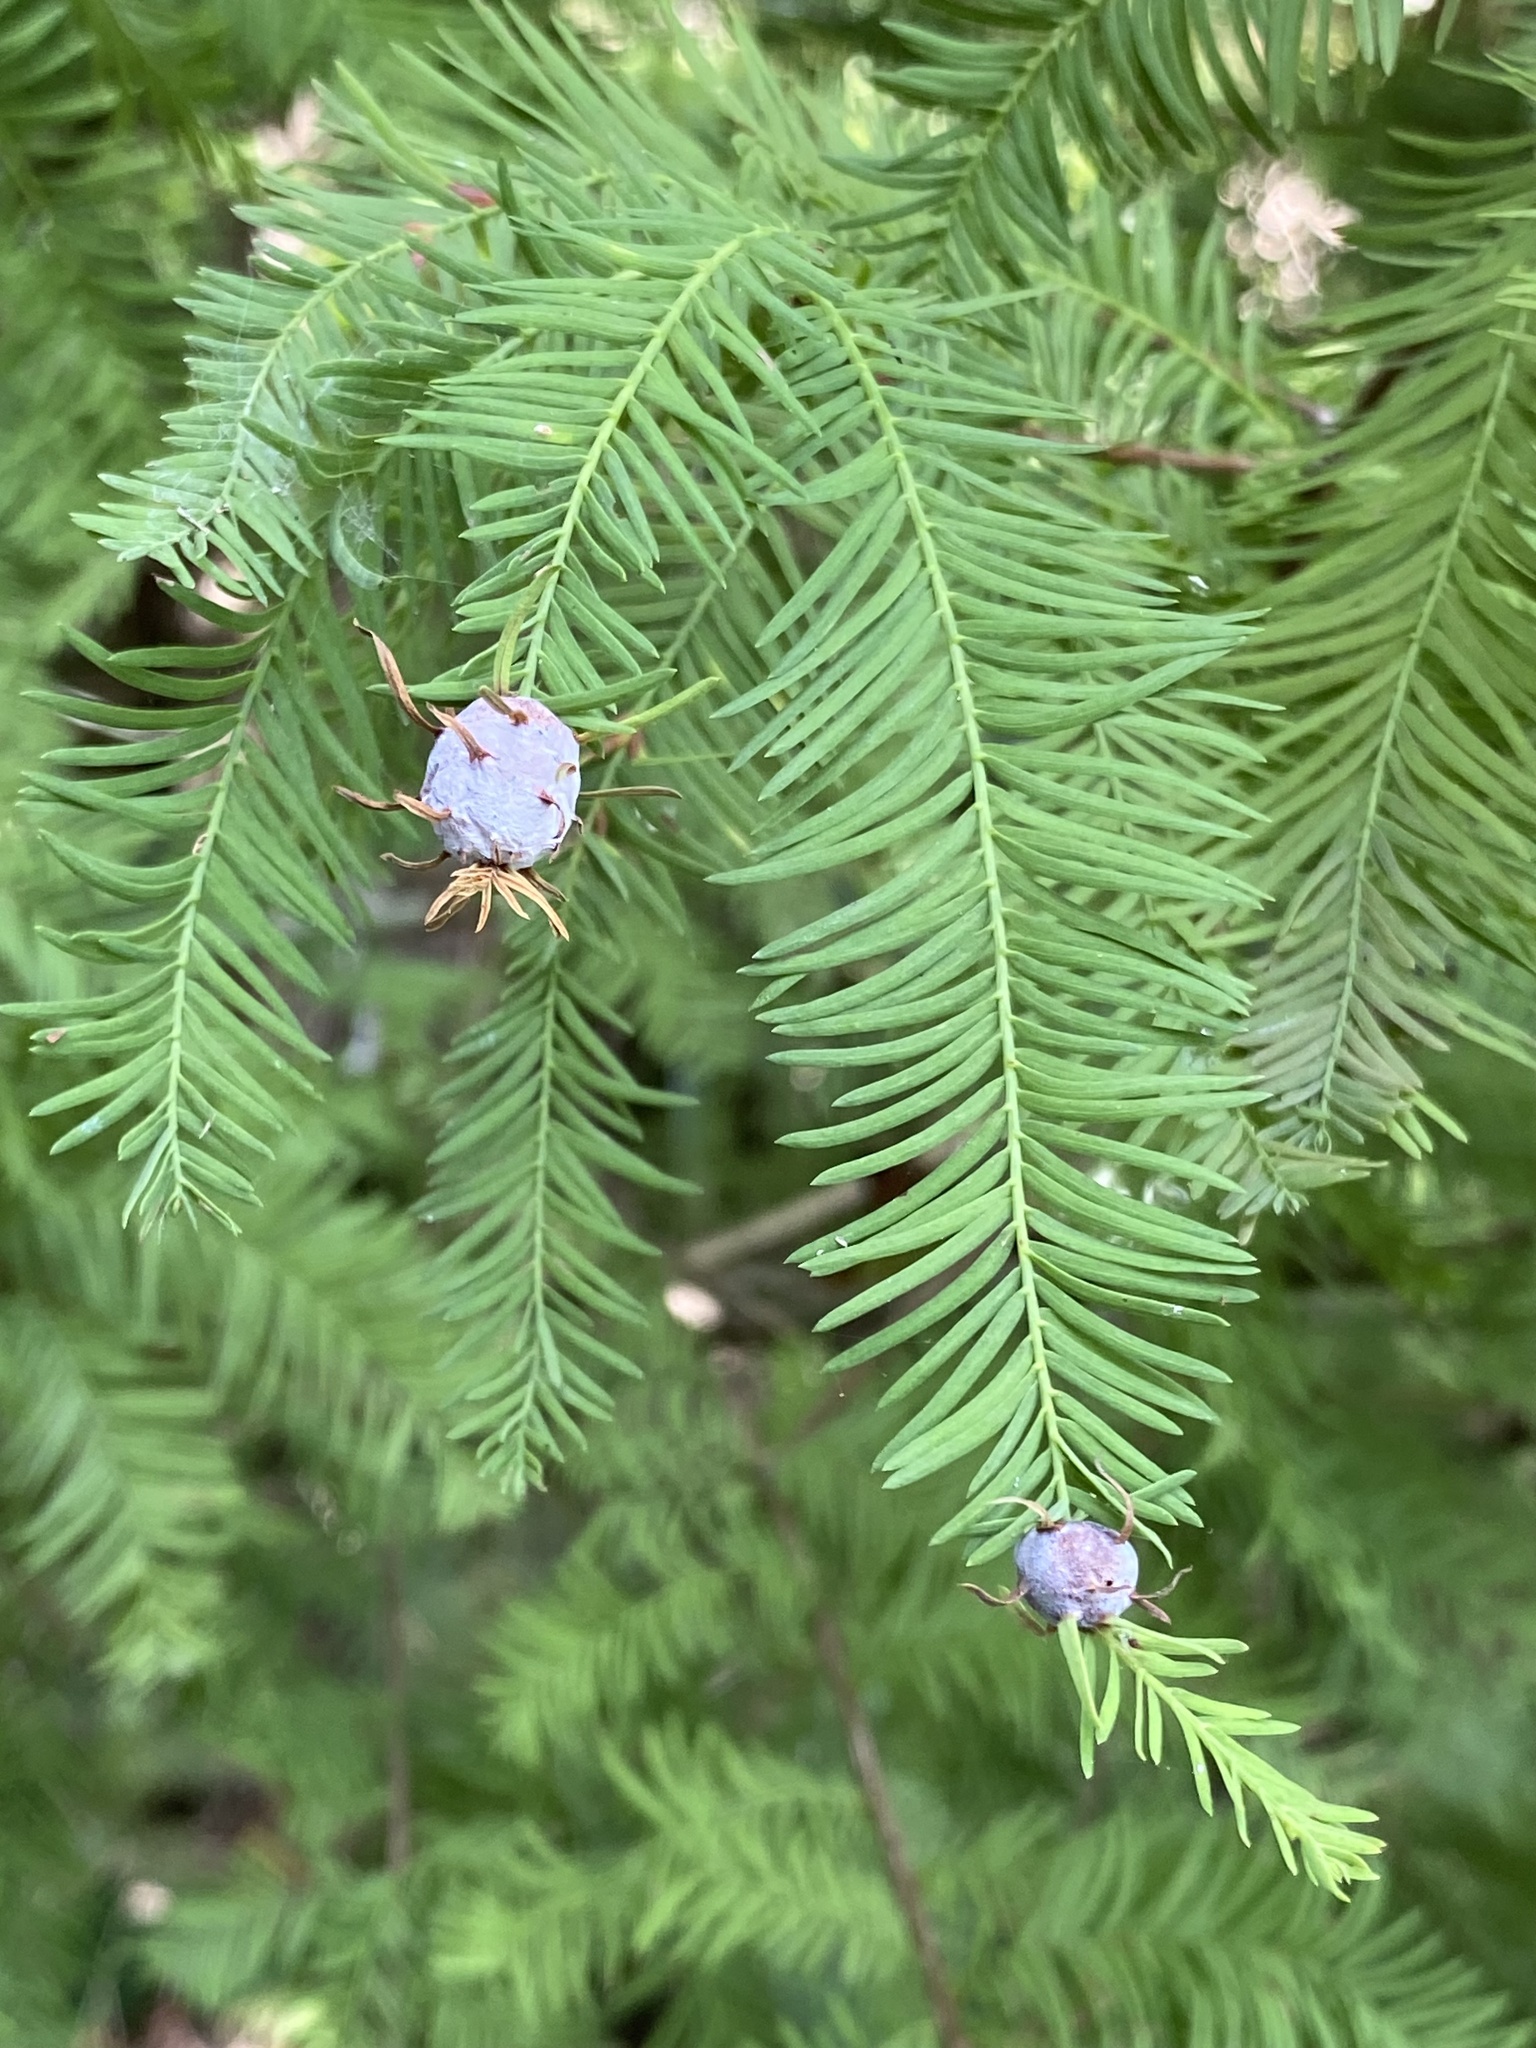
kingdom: Animalia
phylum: Arthropoda
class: Insecta
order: Diptera
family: Cecidomyiidae
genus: Taxodiomyia
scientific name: Taxodiomyia cupressiananassa
